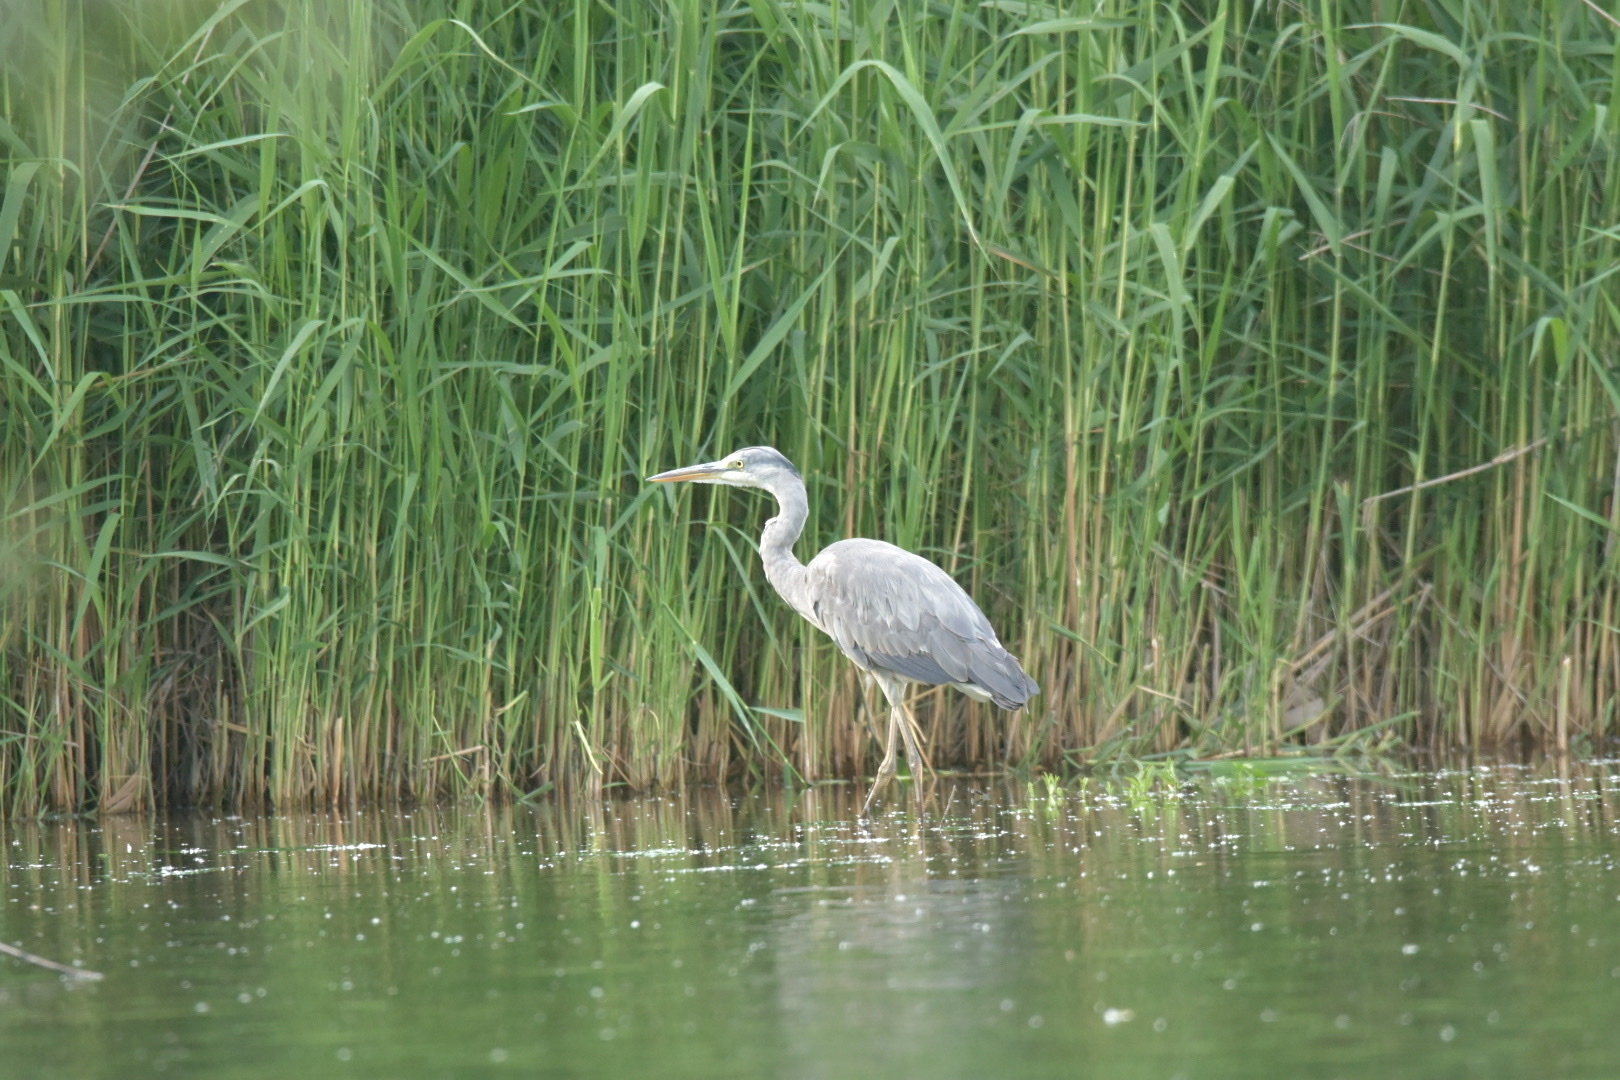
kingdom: Animalia
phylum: Chordata
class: Aves
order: Pelecaniformes
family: Ardeidae
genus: Ardea
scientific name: Ardea cinerea
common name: Grey heron
